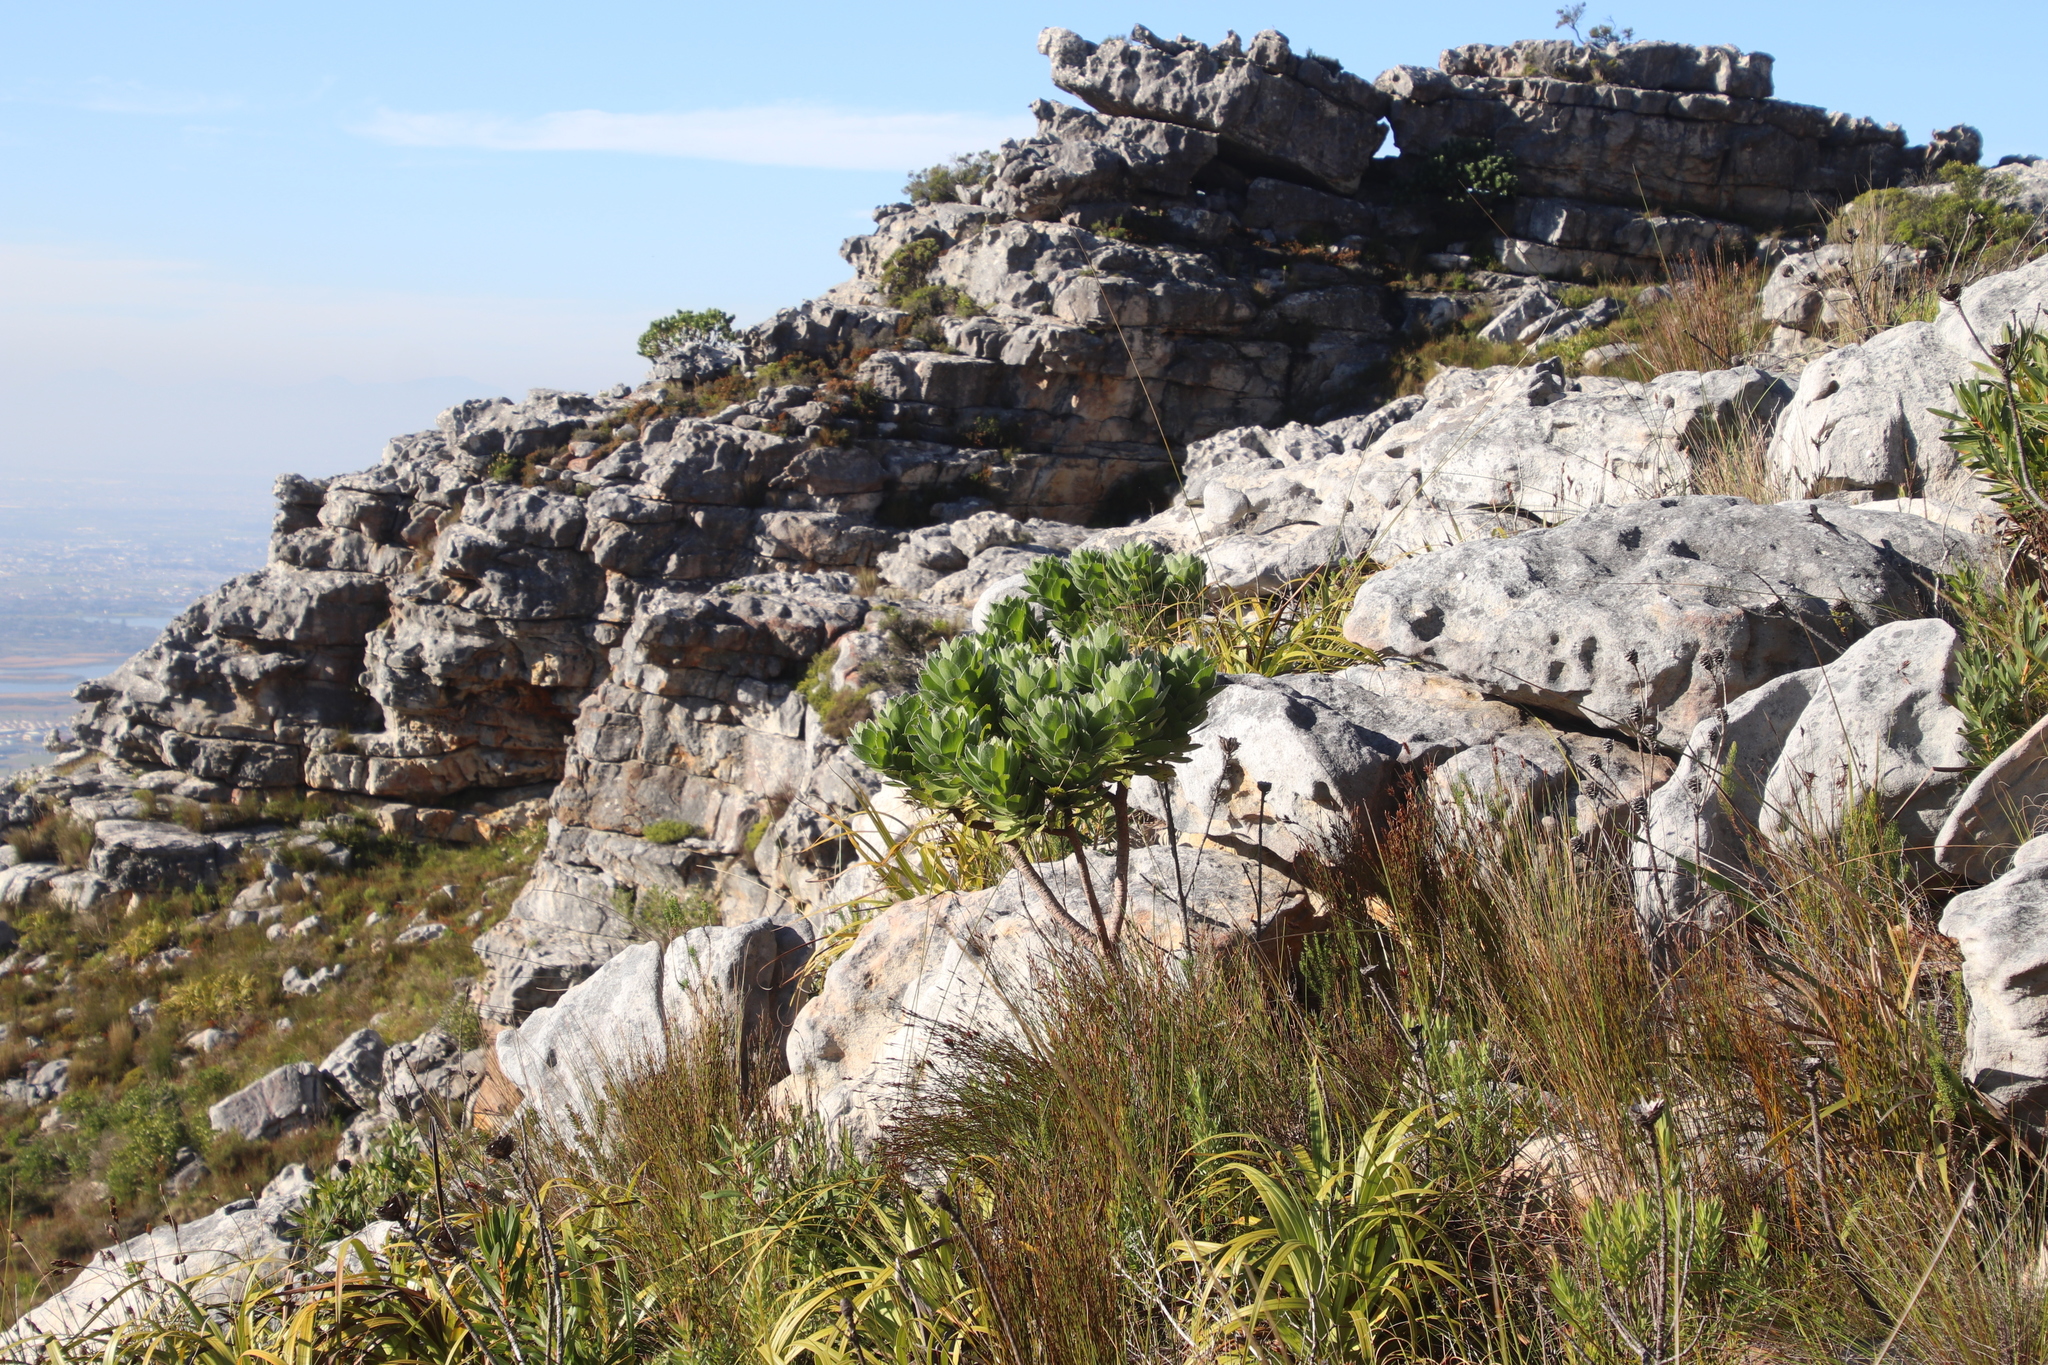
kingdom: Plantae
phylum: Tracheophyta
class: Magnoliopsida
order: Proteales
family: Proteaceae
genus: Leucospermum
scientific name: Leucospermum conocarpodendron
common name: Tree pincushion
